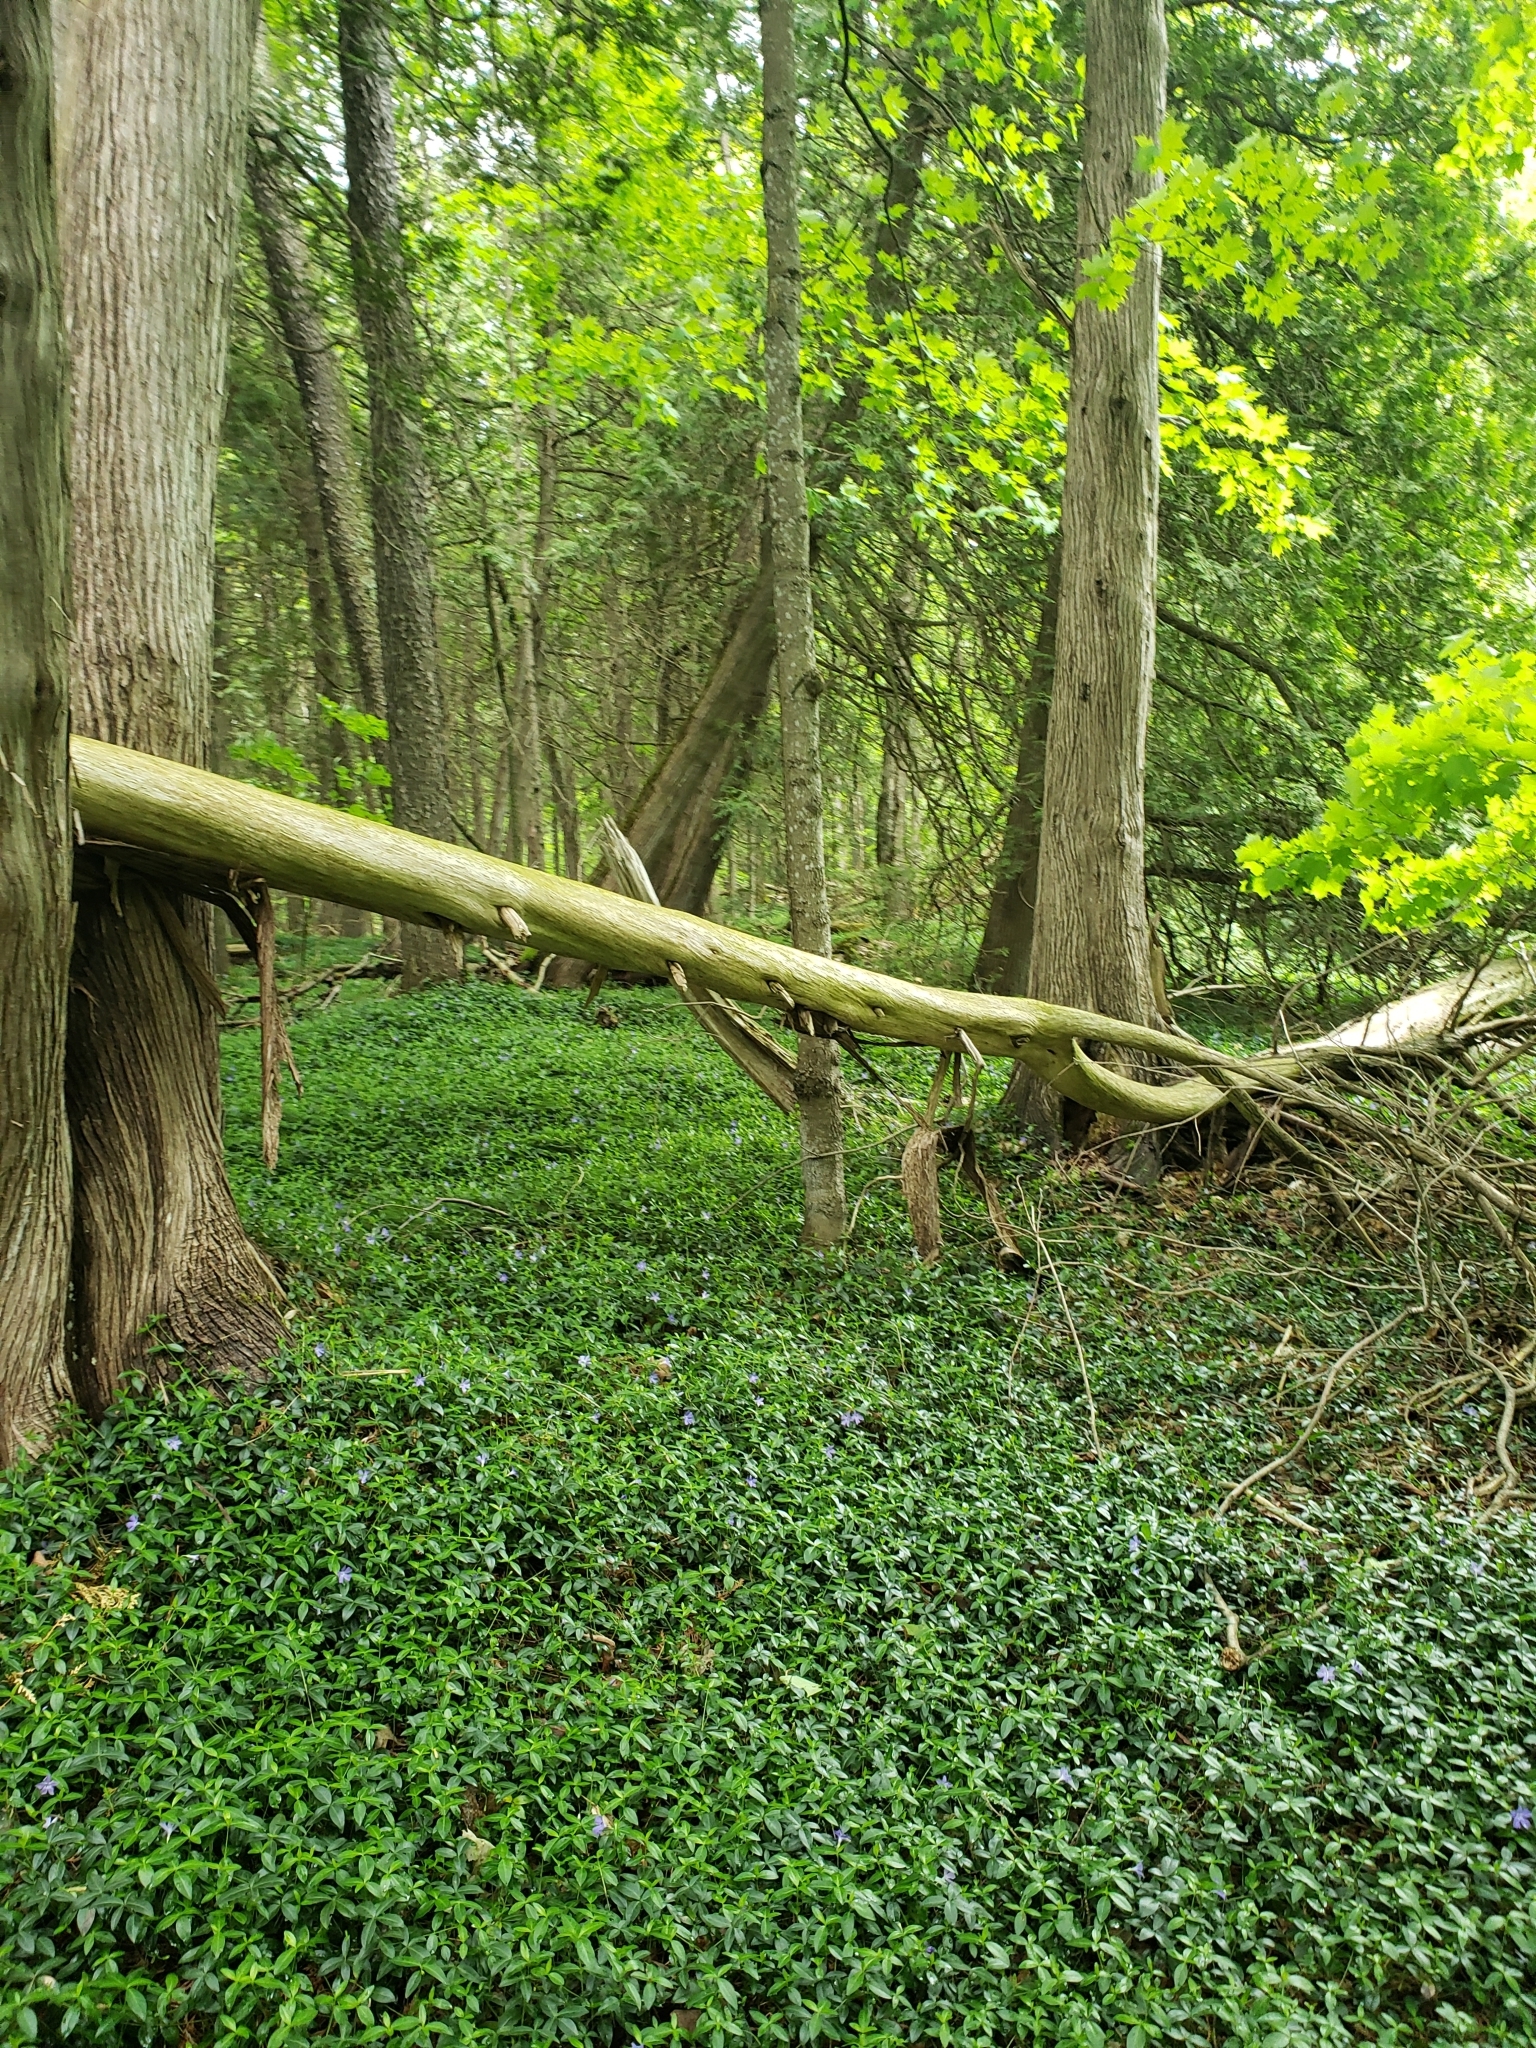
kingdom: Plantae
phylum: Tracheophyta
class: Magnoliopsida
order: Gentianales
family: Apocynaceae
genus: Vinca
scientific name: Vinca minor
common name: Lesser periwinkle
